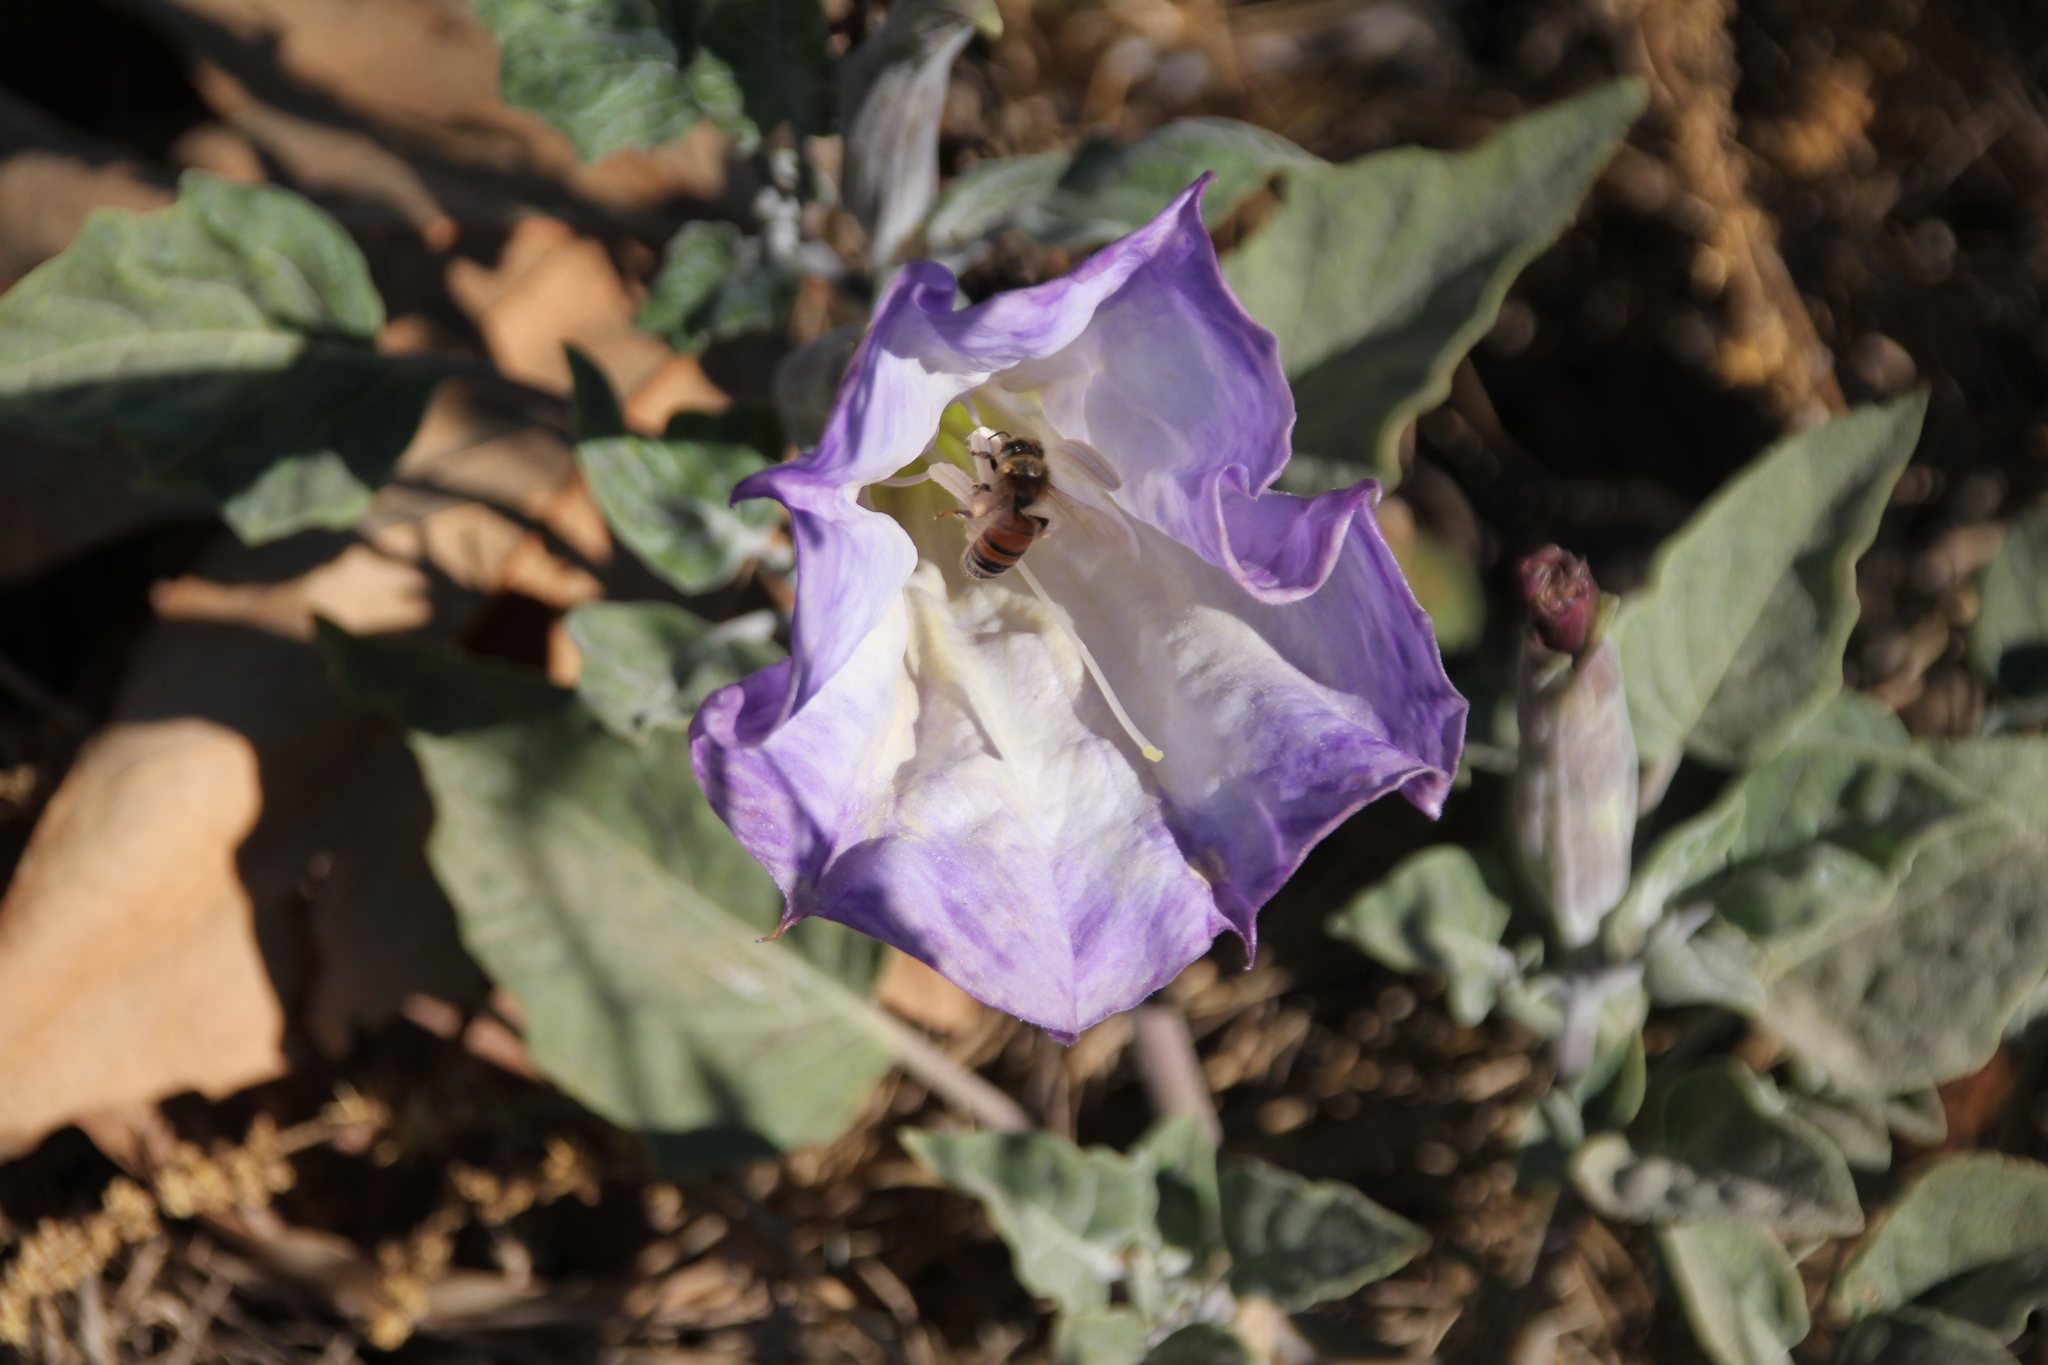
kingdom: Plantae
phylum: Tracheophyta
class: Magnoliopsida
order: Solanales
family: Solanaceae
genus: Datura
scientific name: Datura wrightii
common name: Sacred thorn-apple
